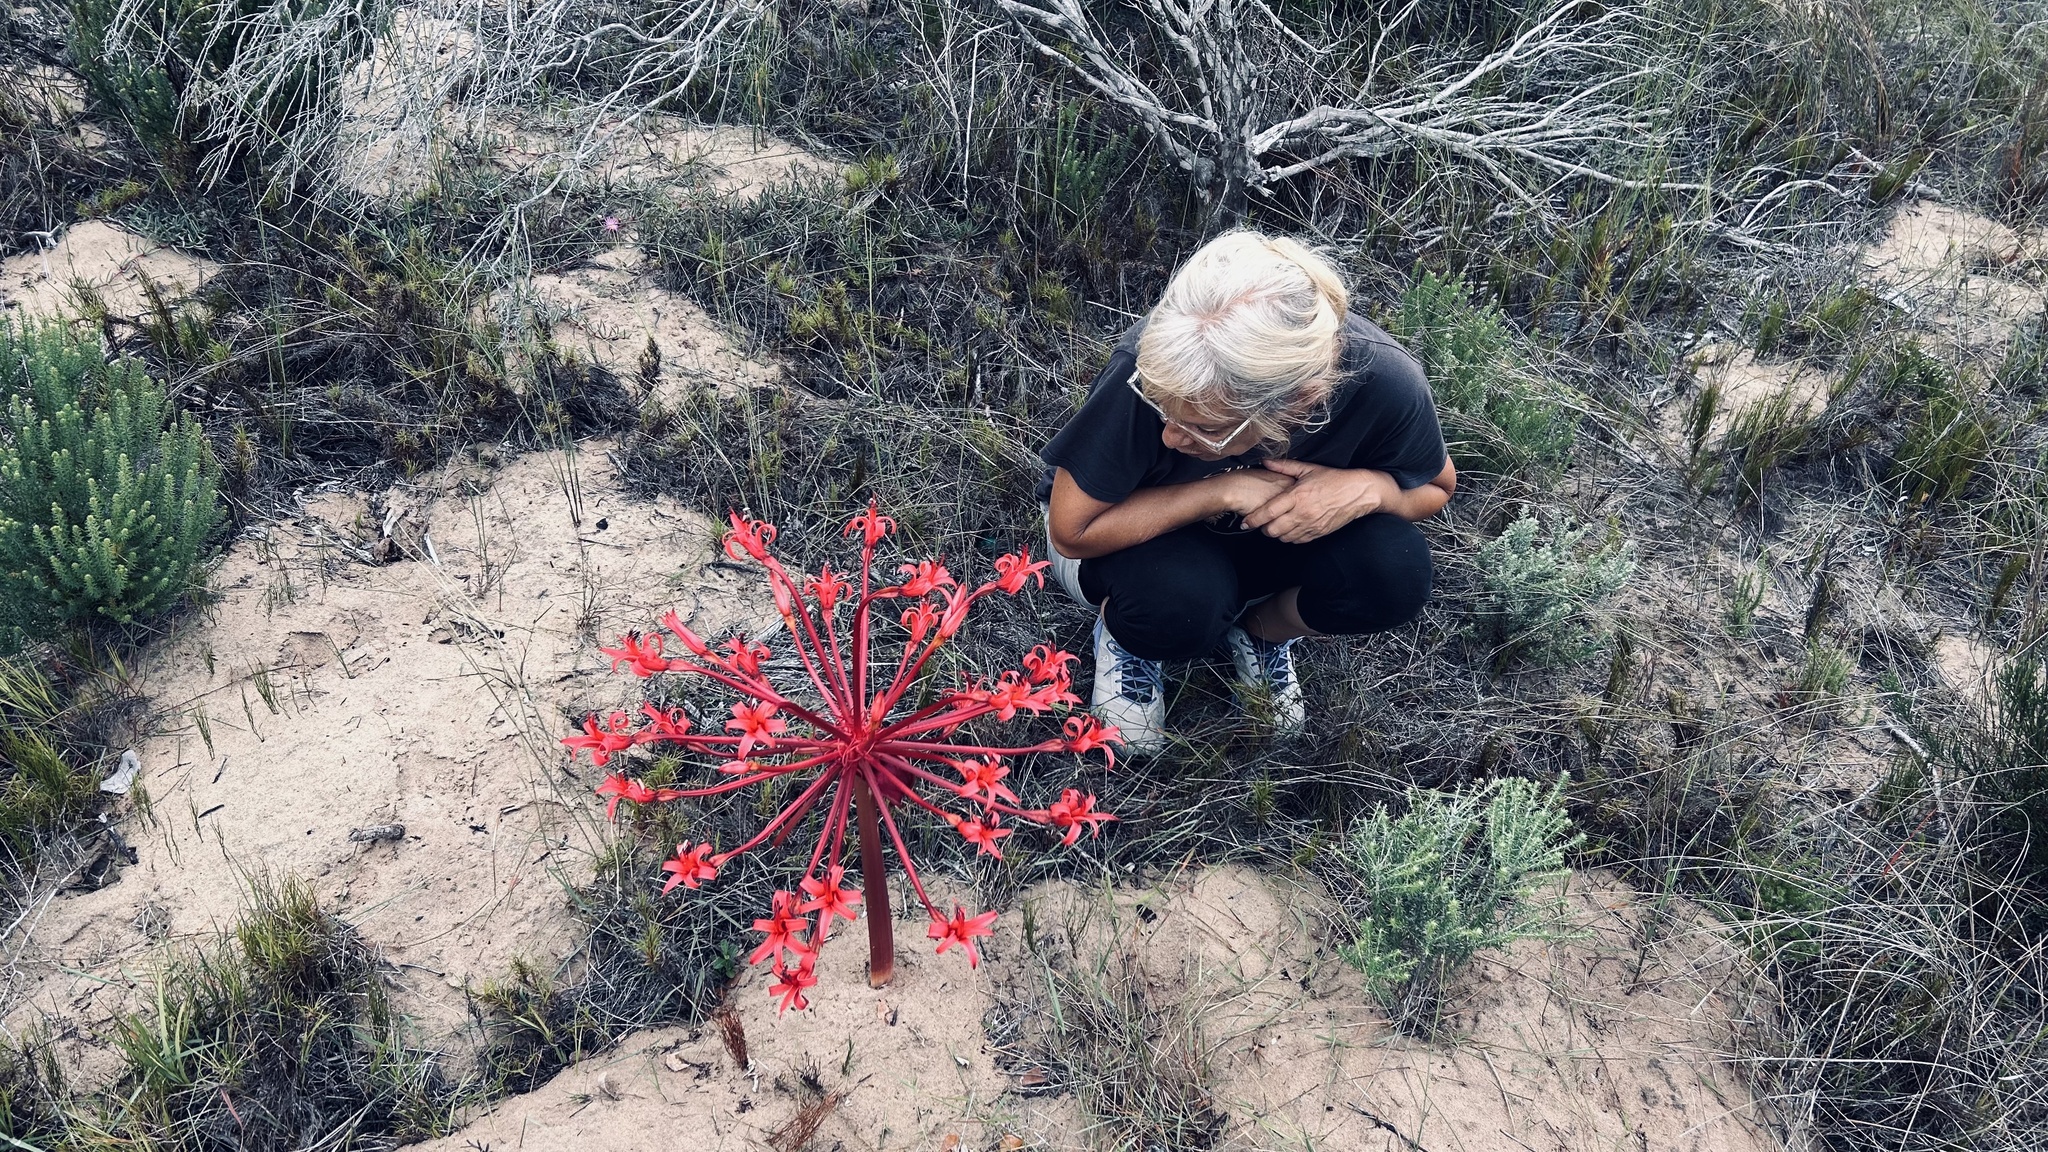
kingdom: Plantae
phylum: Tracheophyta
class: Liliopsida
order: Asparagales
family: Amaryllidaceae
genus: Brunsvigia
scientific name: Brunsvigia orientalis
